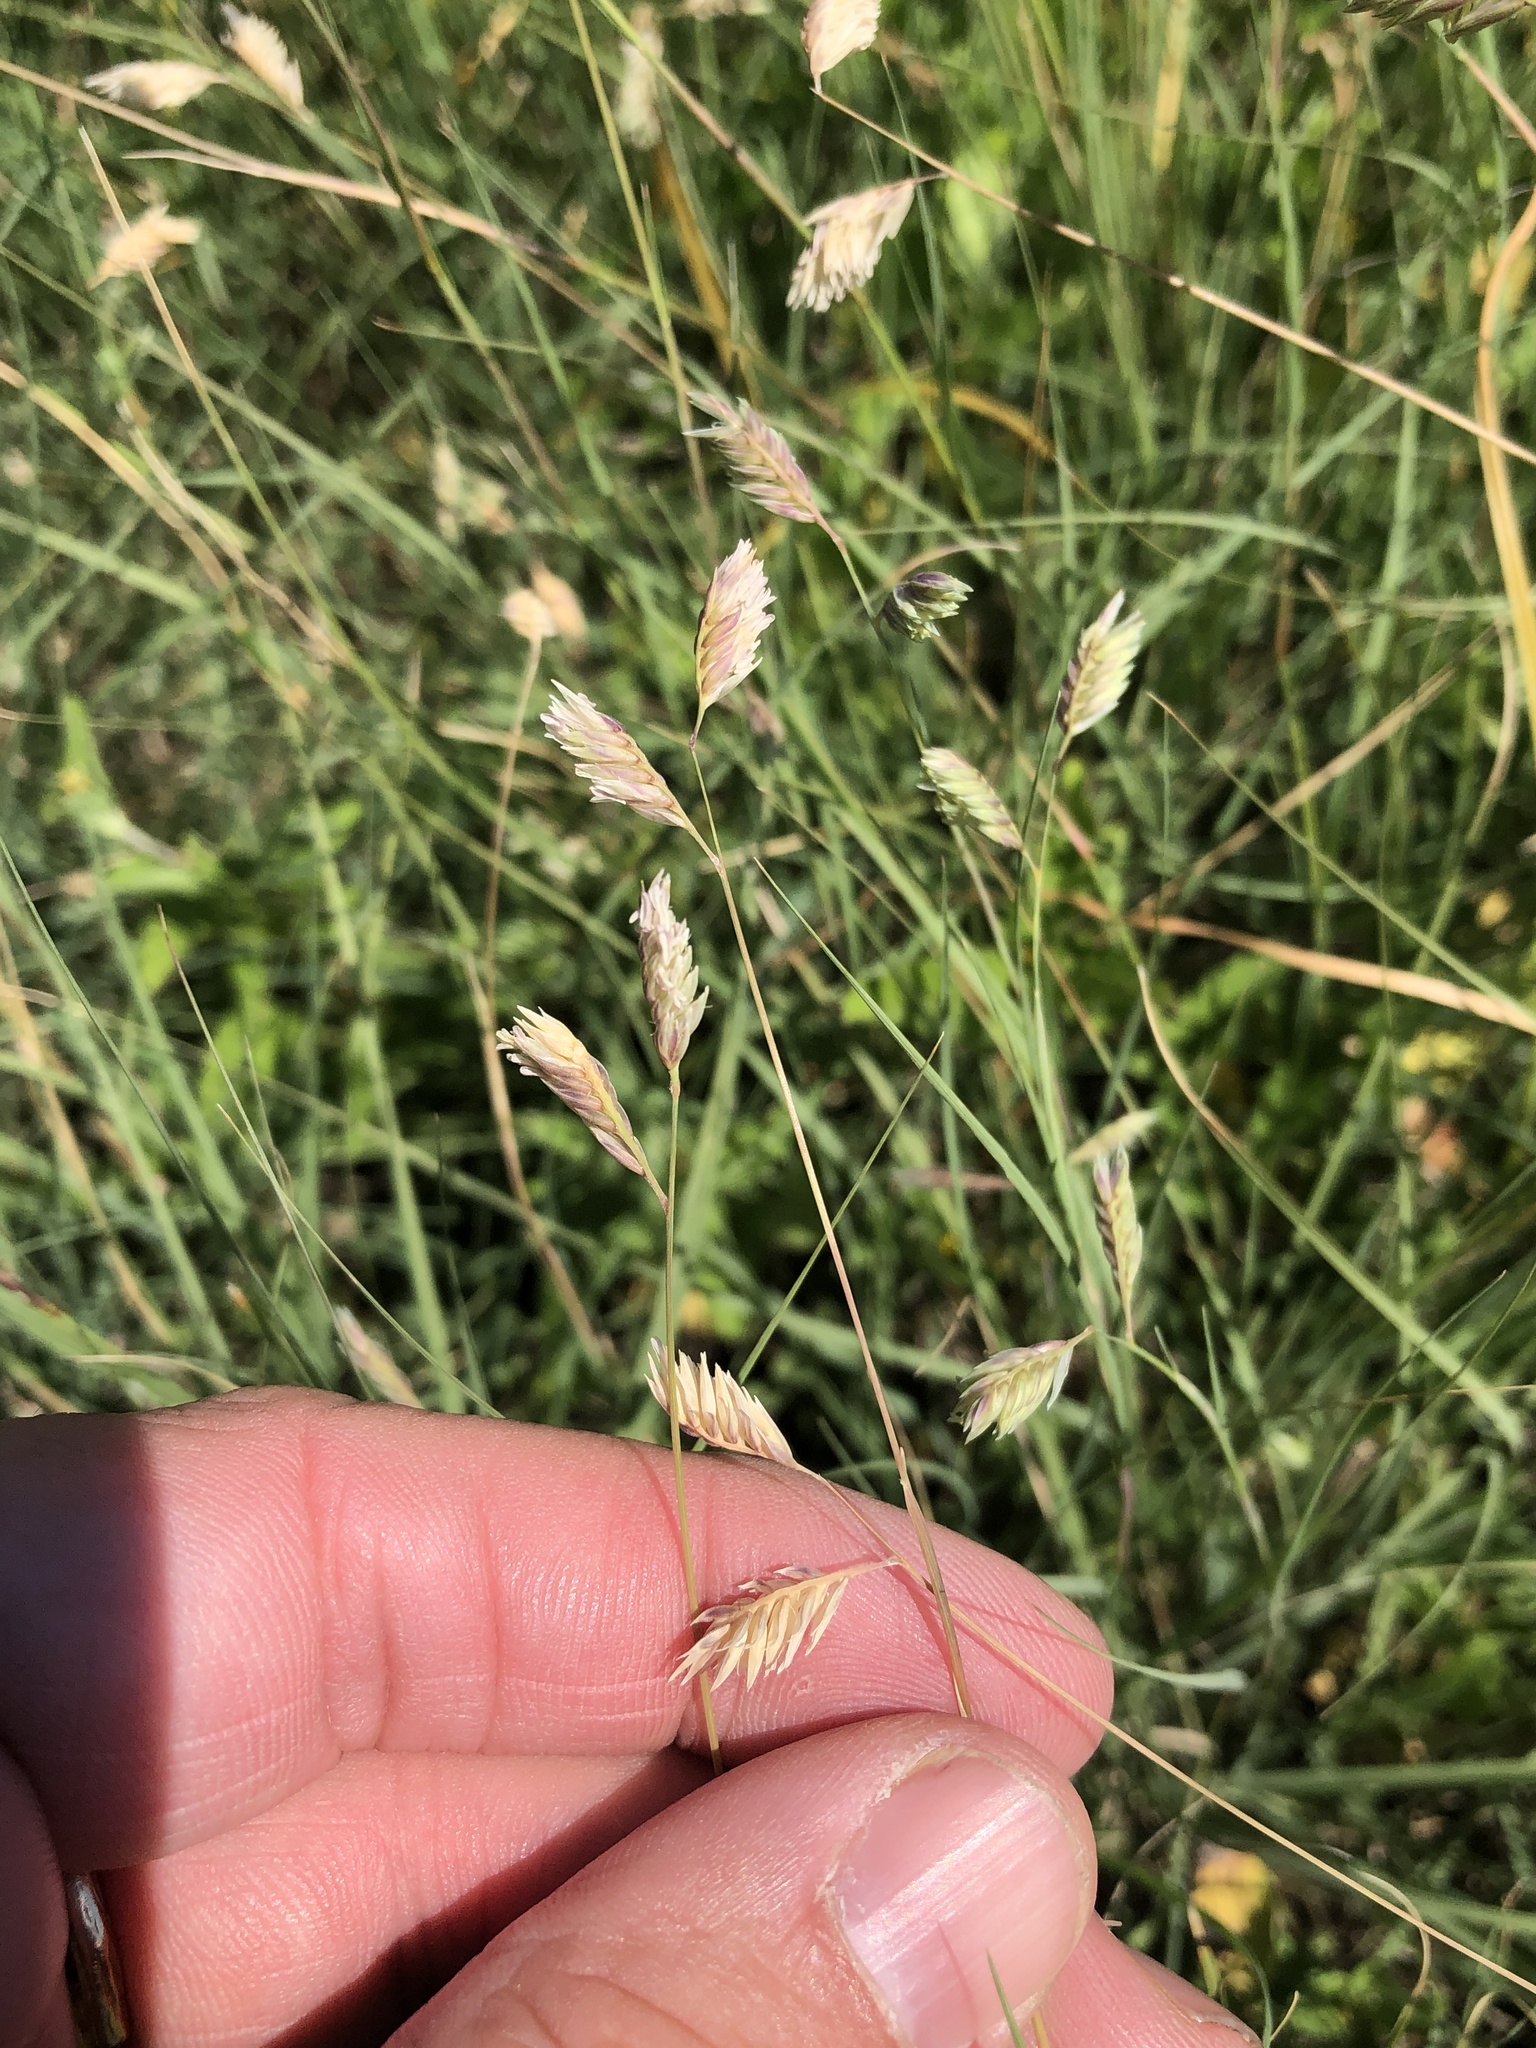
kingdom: Plantae
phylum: Tracheophyta
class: Liliopsida
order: Poales
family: Poaceae
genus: Bouteloua
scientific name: Bouteloua dactyloides
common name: Buffalo grass
